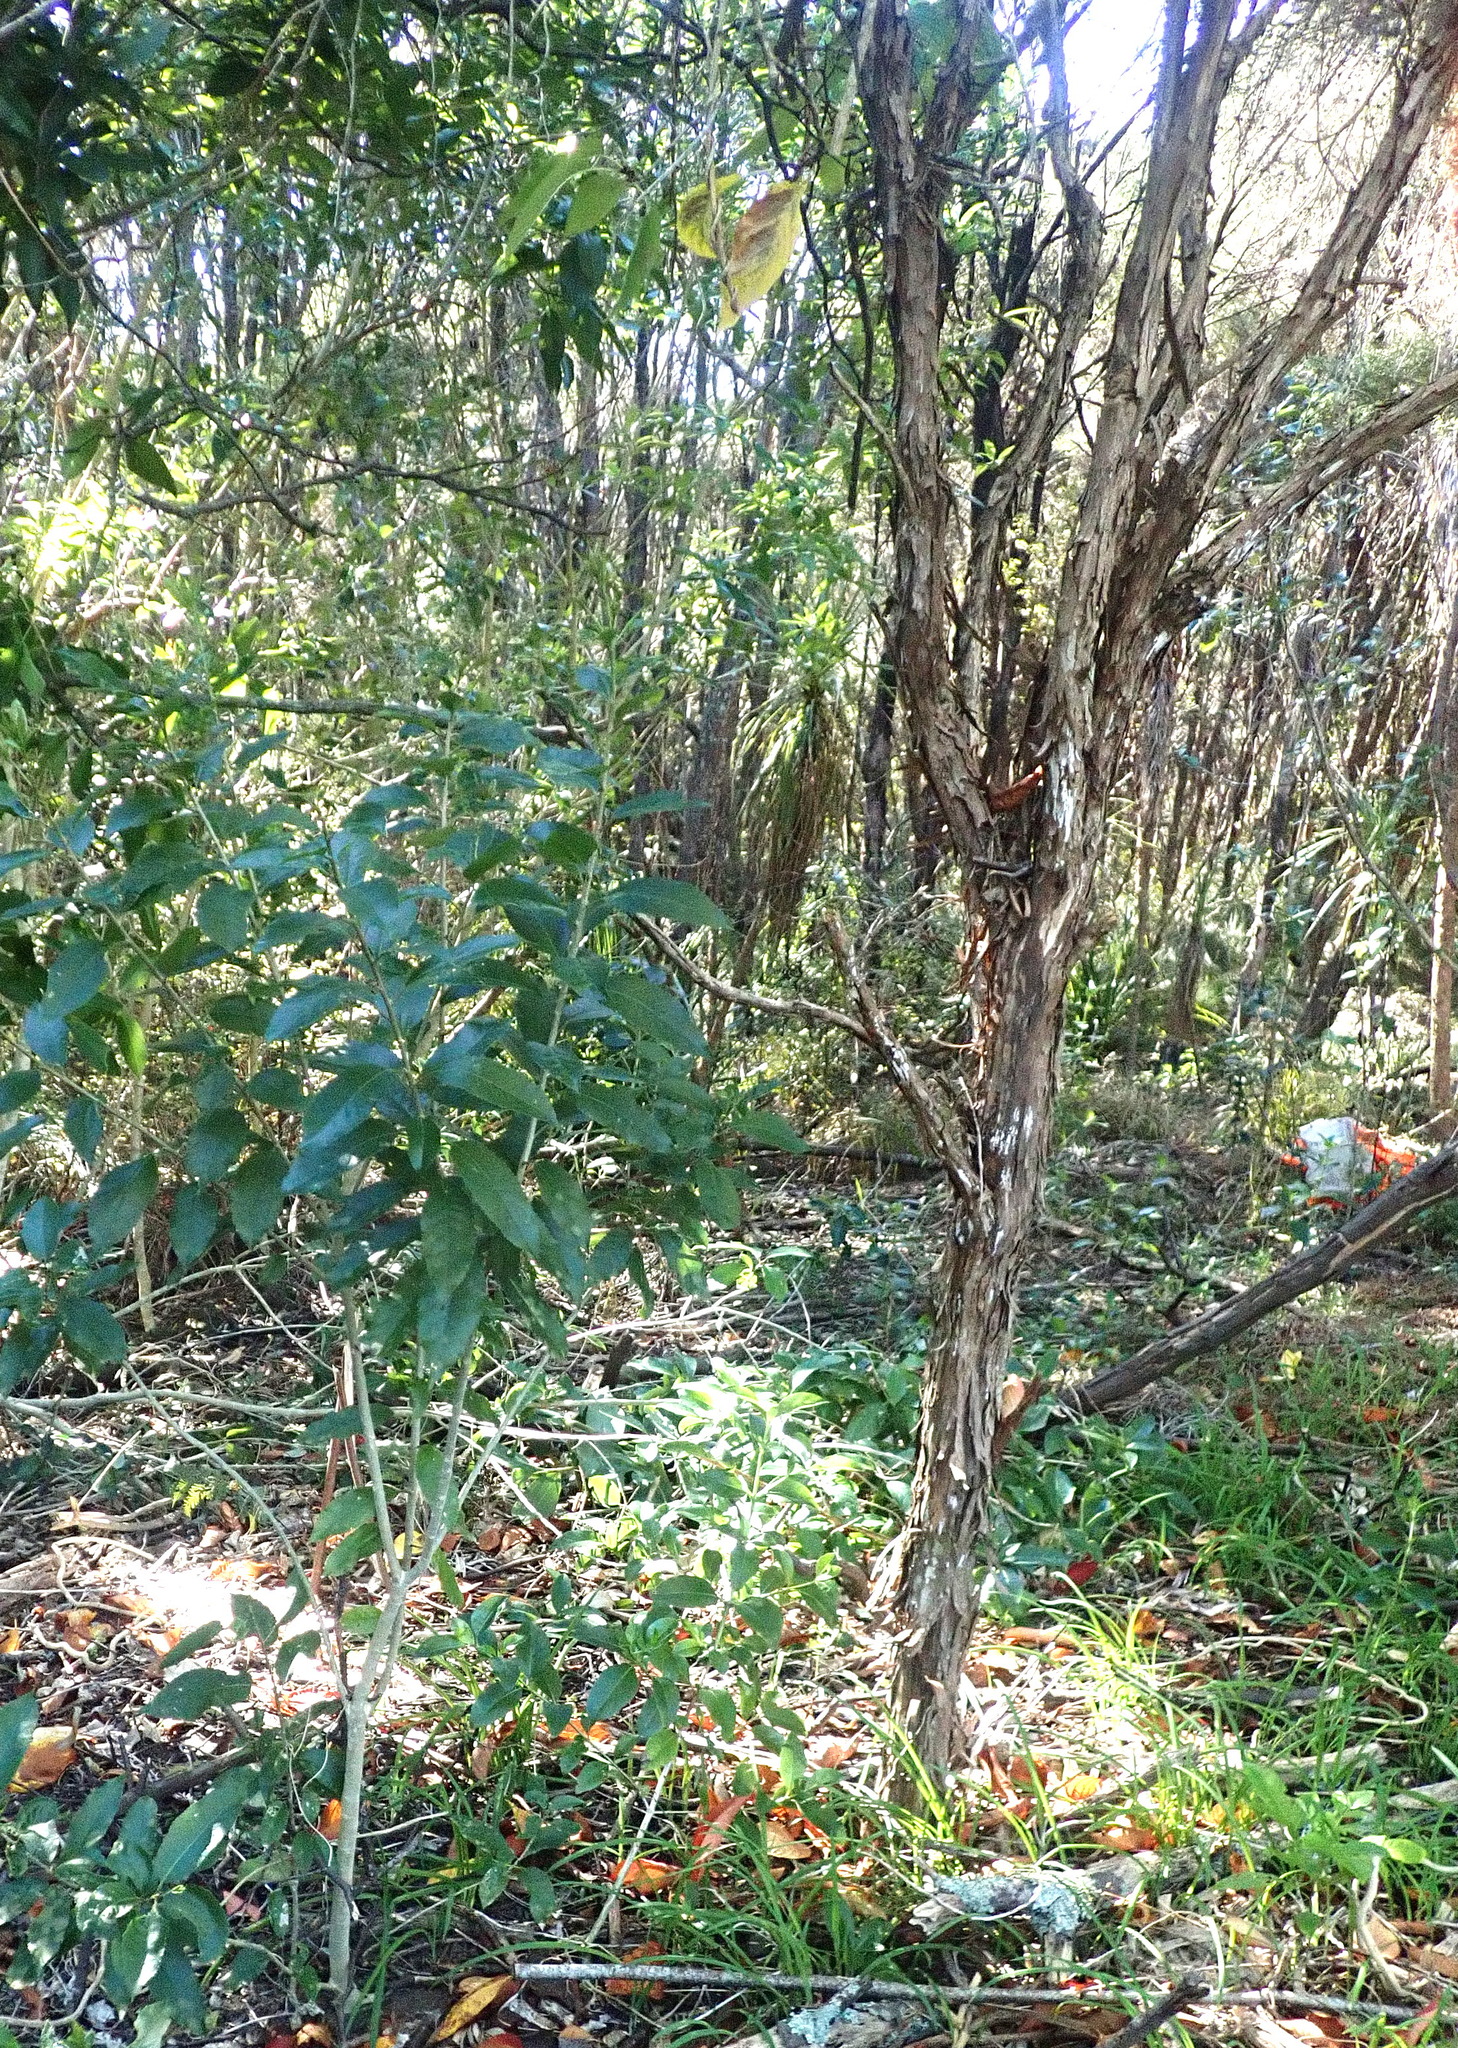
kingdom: Plantae
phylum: Tracheophyta
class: Magnoliopsida
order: Myrtales
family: Myrtaceae
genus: Leptospermum
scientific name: Leptospermum scoparium
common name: Broom tea-tree
